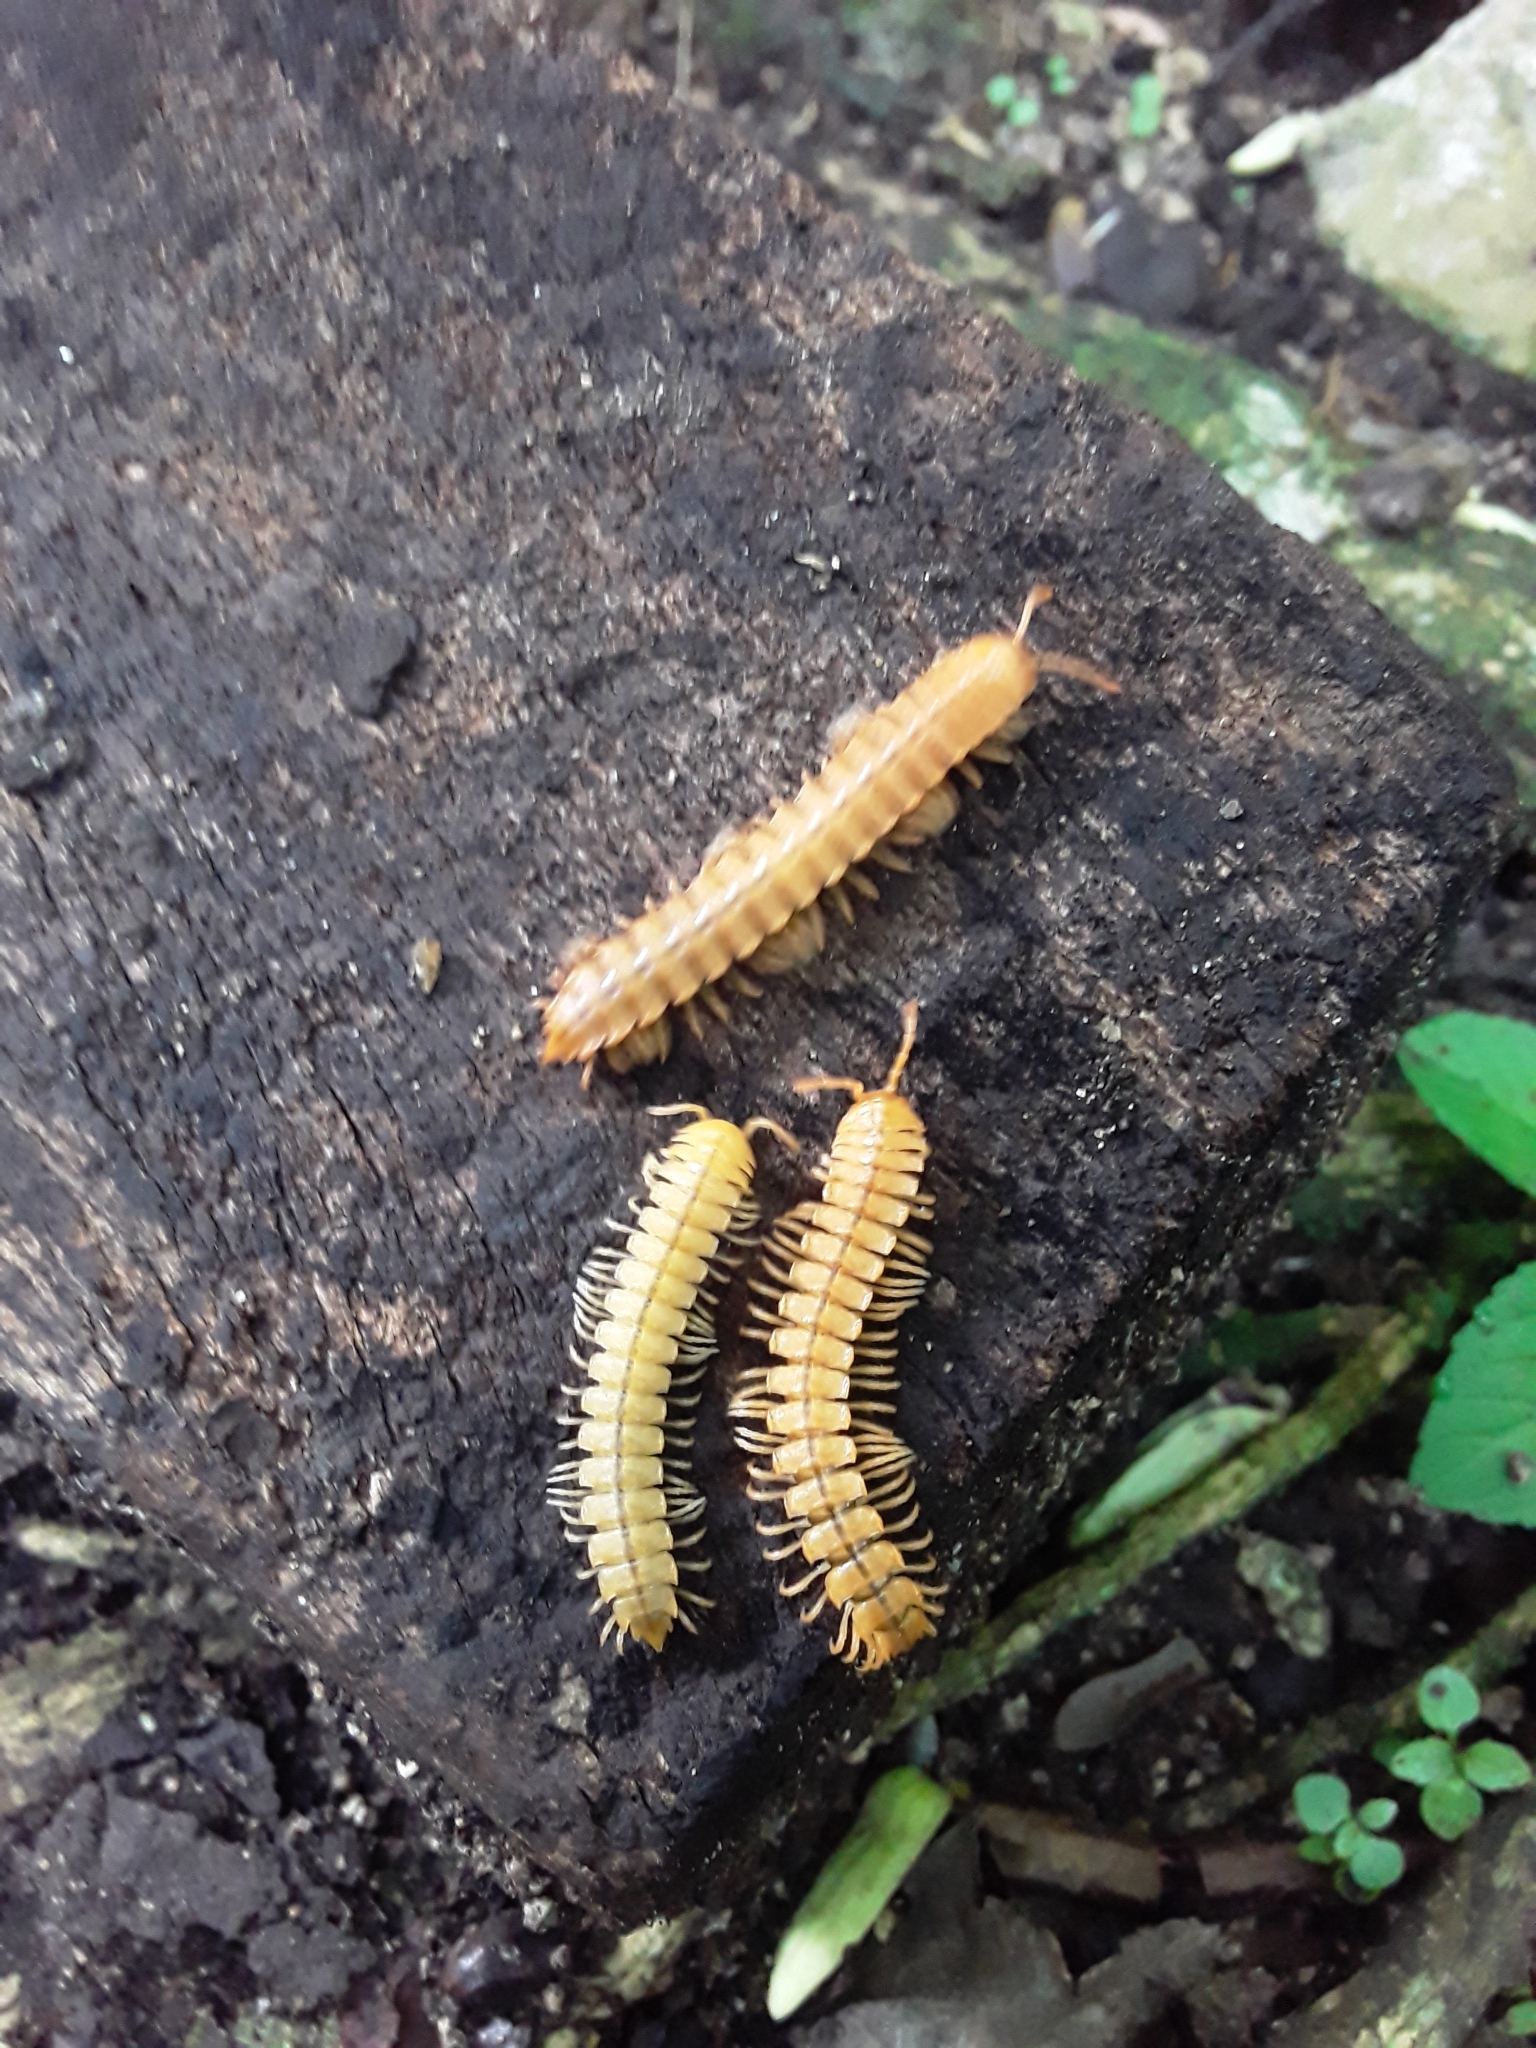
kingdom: Animalia
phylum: Arthropoda
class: Diplopoda
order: Polydesmida
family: Rhachodesmidae
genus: Aceratophallus
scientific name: Aceratophallus maya
